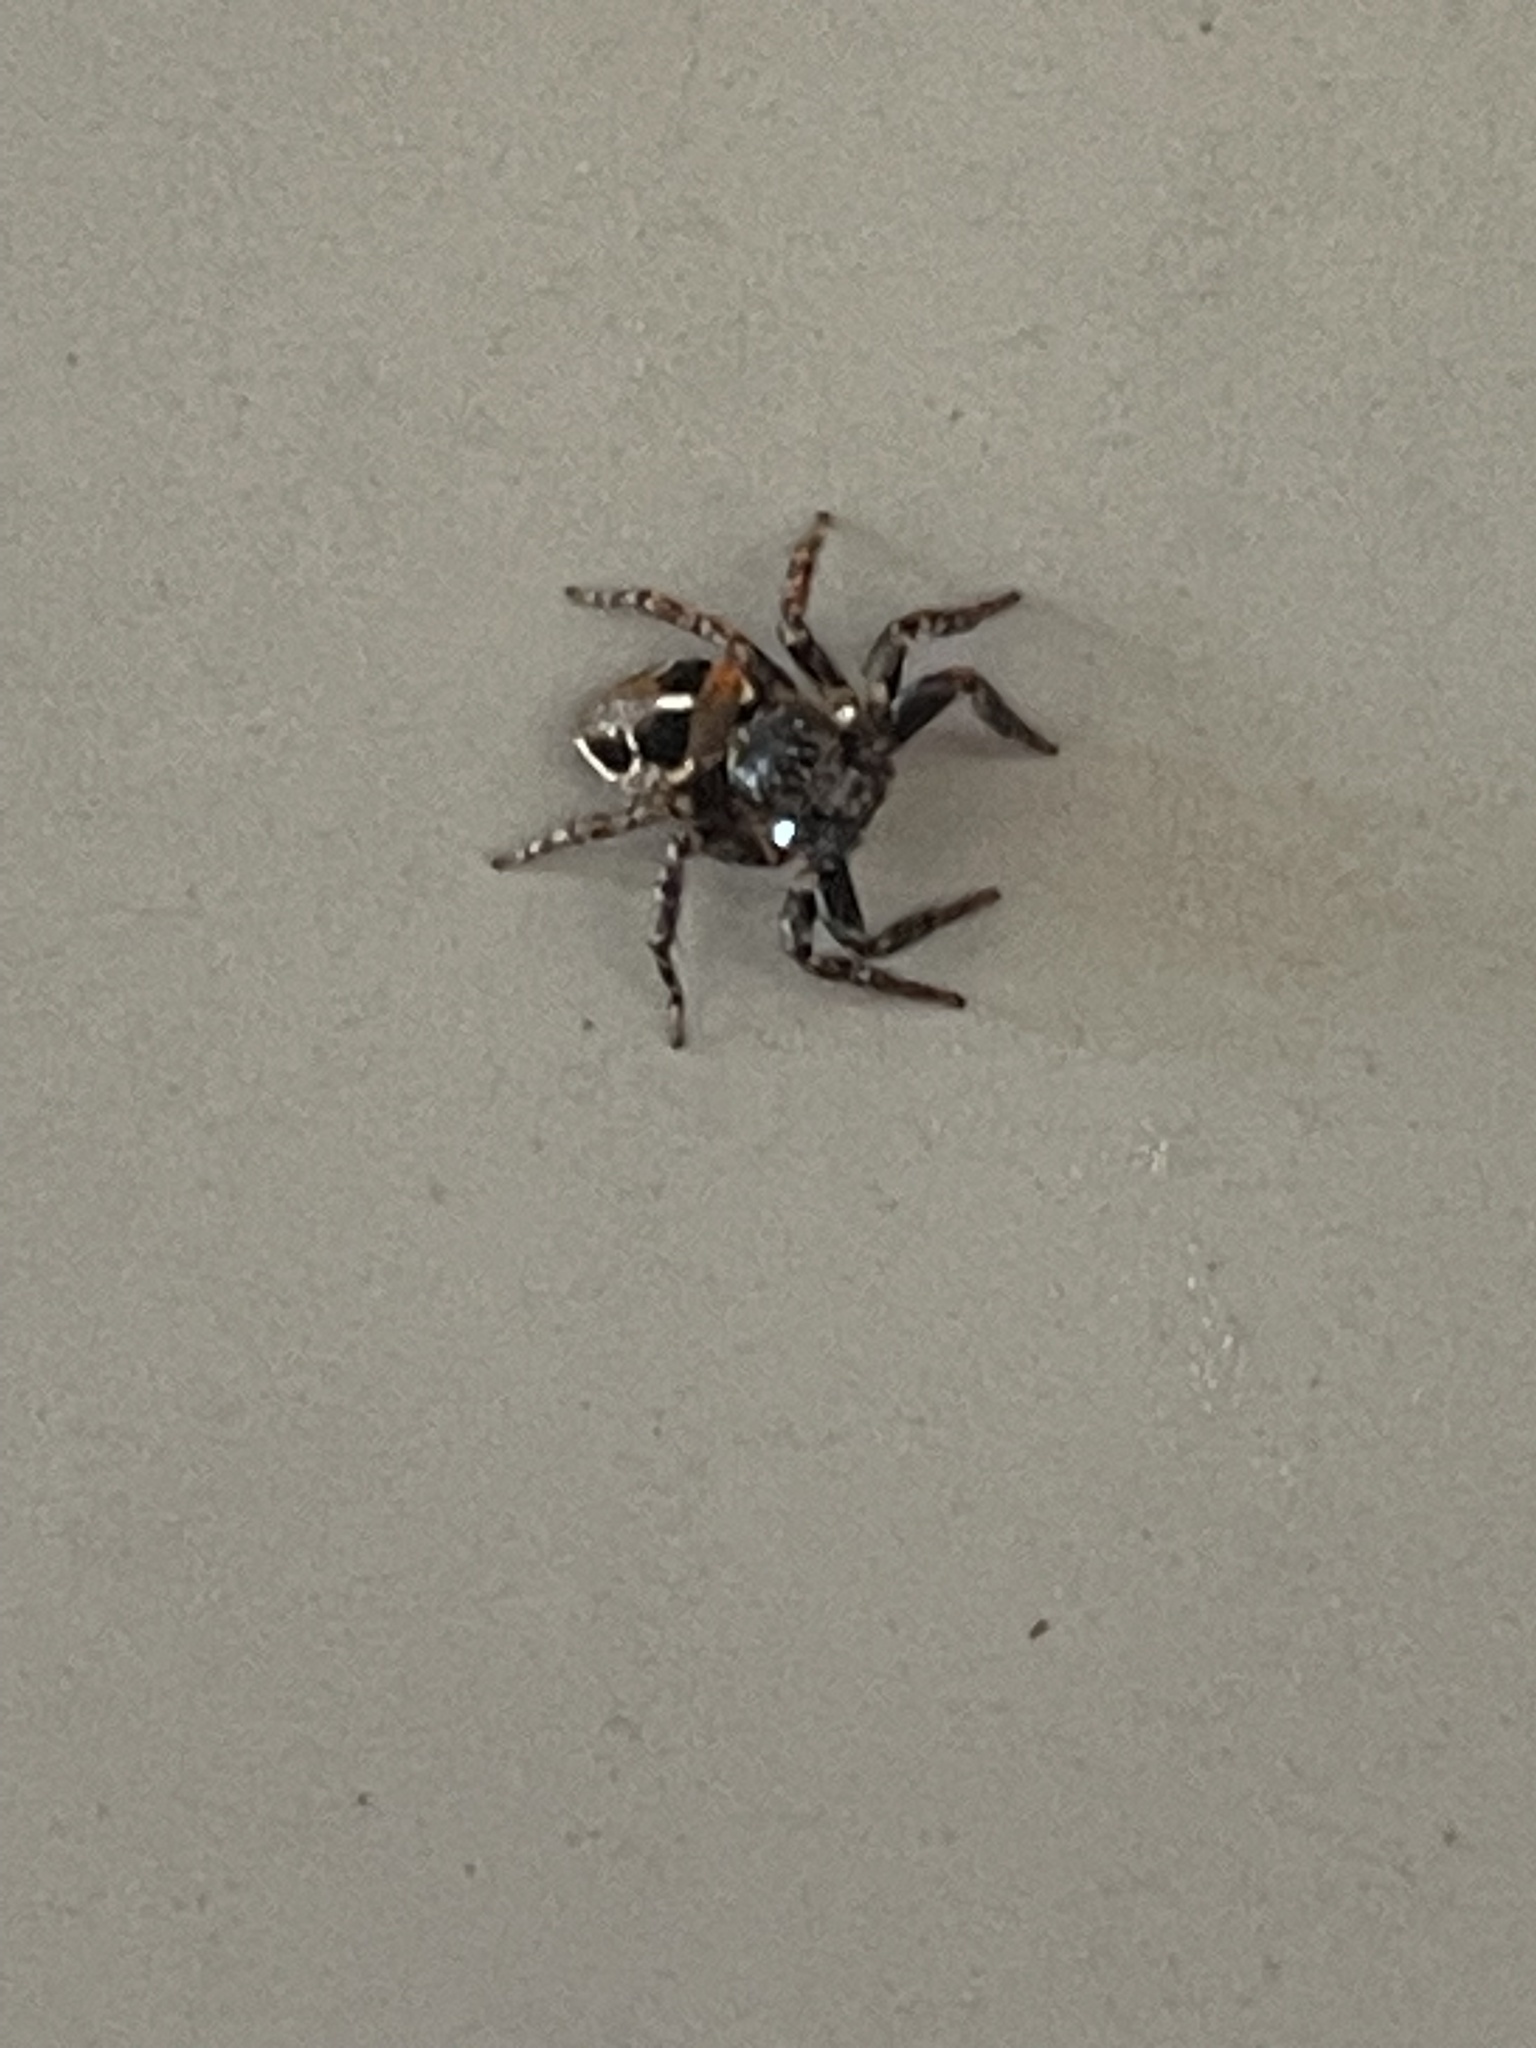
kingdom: Animalia
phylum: Arthropoda
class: Arachnida
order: Araneae
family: Salticidae
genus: Anasaitis
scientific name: Anasaitis canosa
